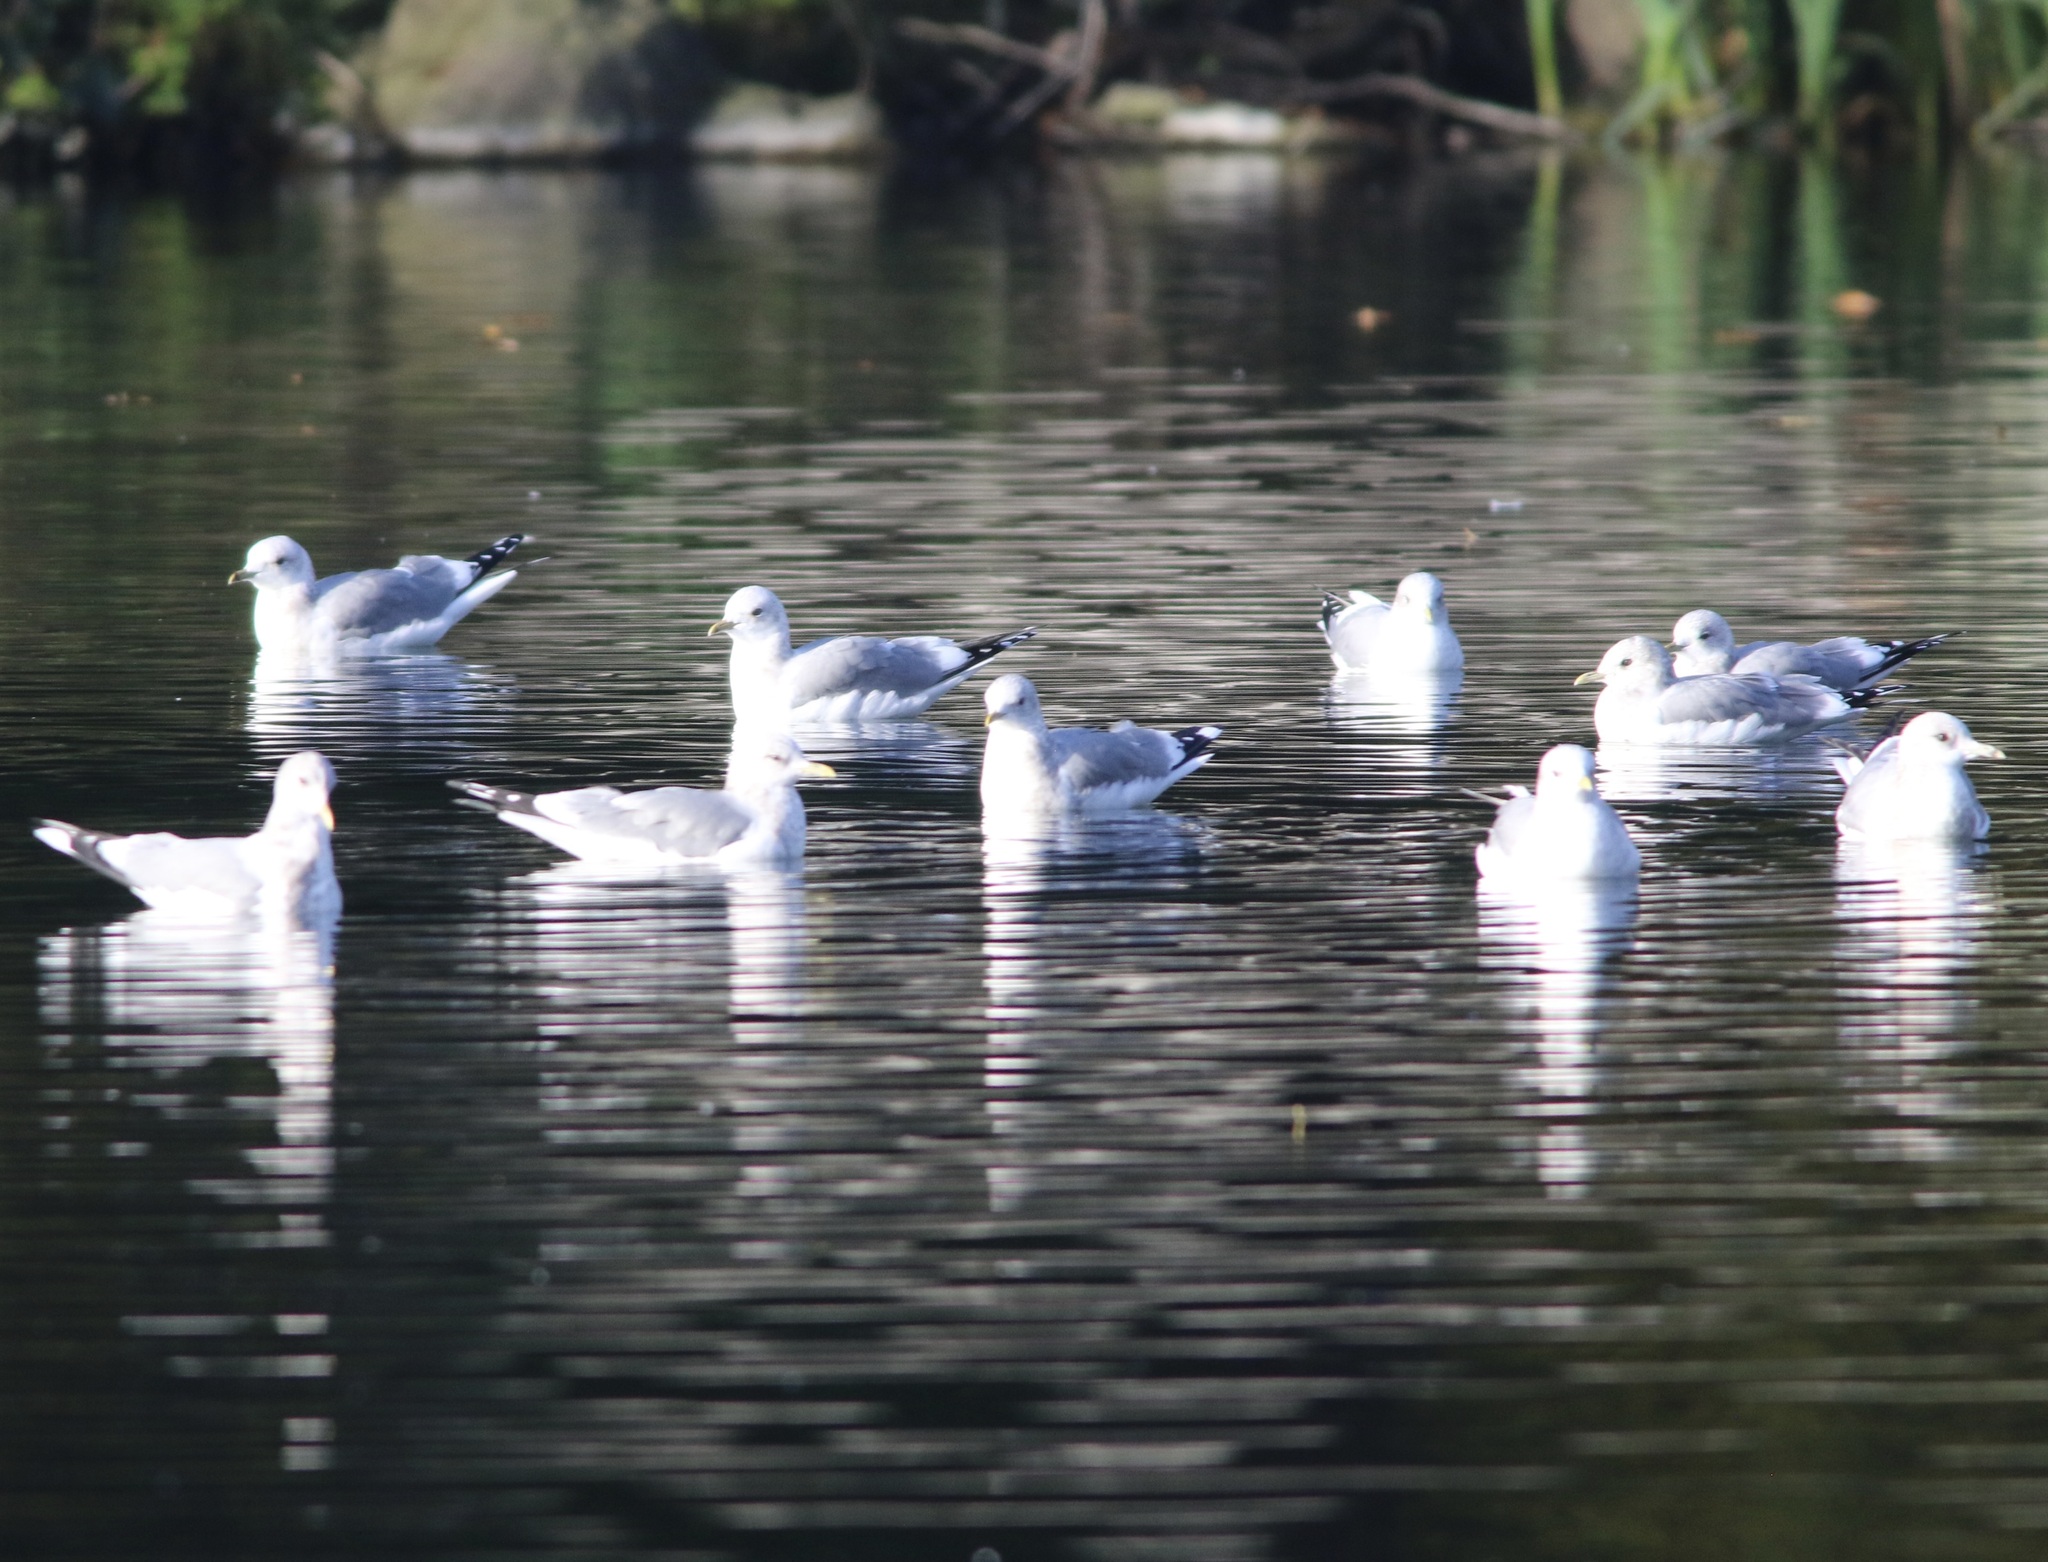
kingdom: Animalia
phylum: Chordata
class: Aves
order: Charadriiformes
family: Laridae
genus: Larus
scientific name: Larus brachyrhynchus
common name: Short-billed gull
